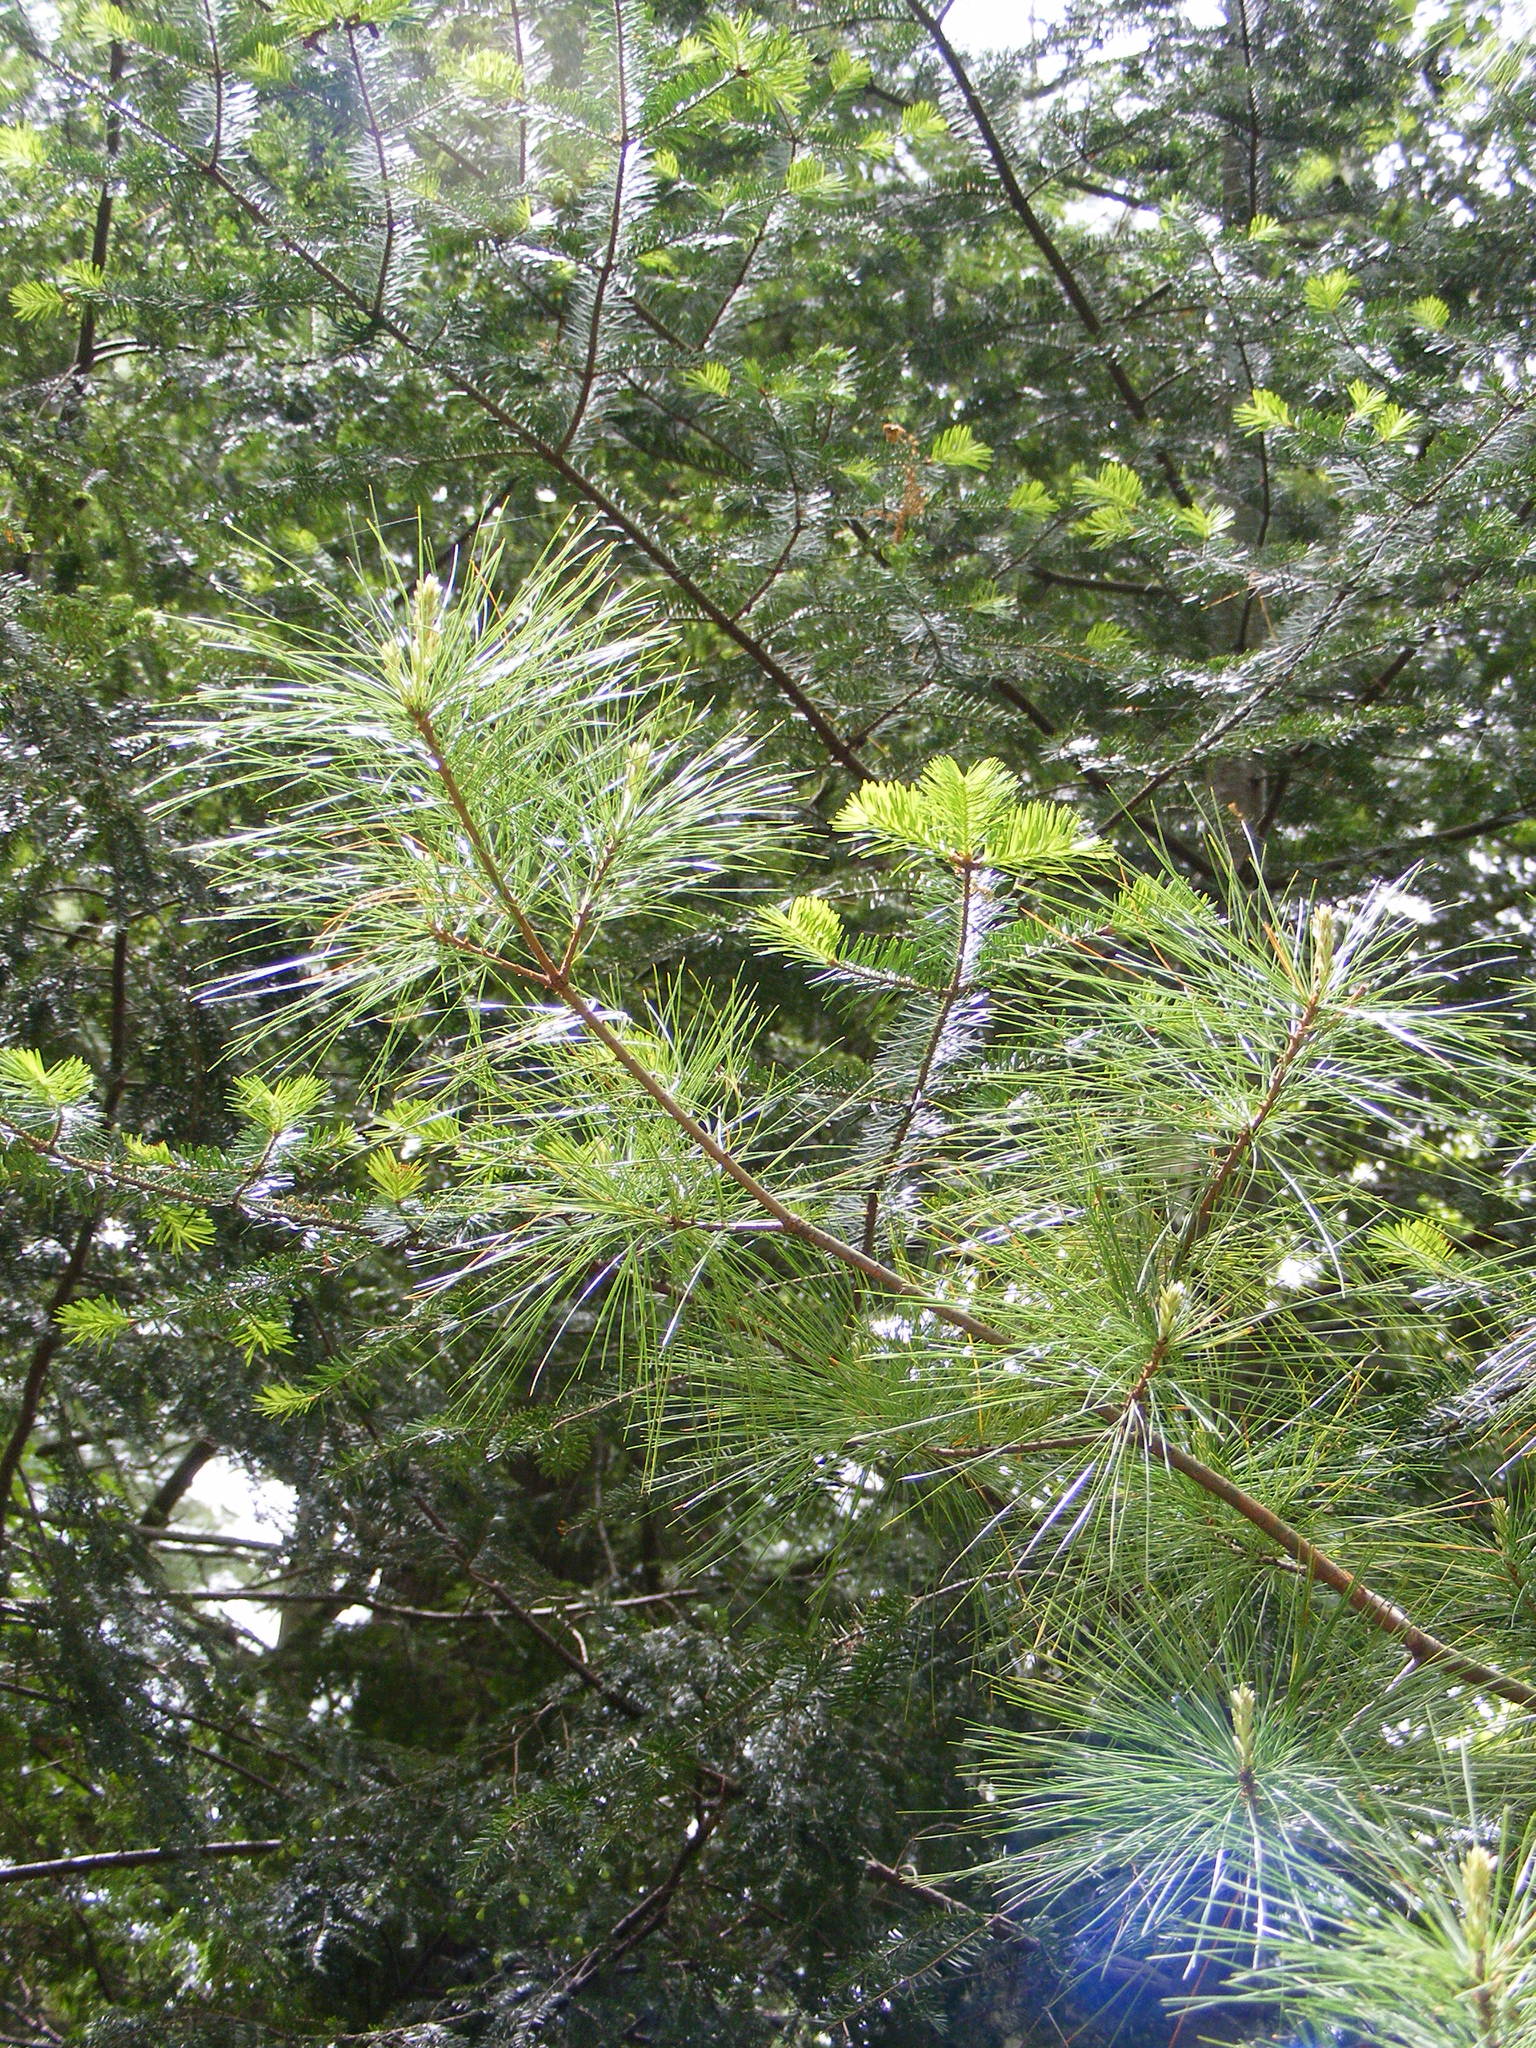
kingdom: Plantae
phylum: Tracheophyta
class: Pinopsida
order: Pinales
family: Pinaceae
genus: Pinus
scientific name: Pinus strobus
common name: Weymouth pine
